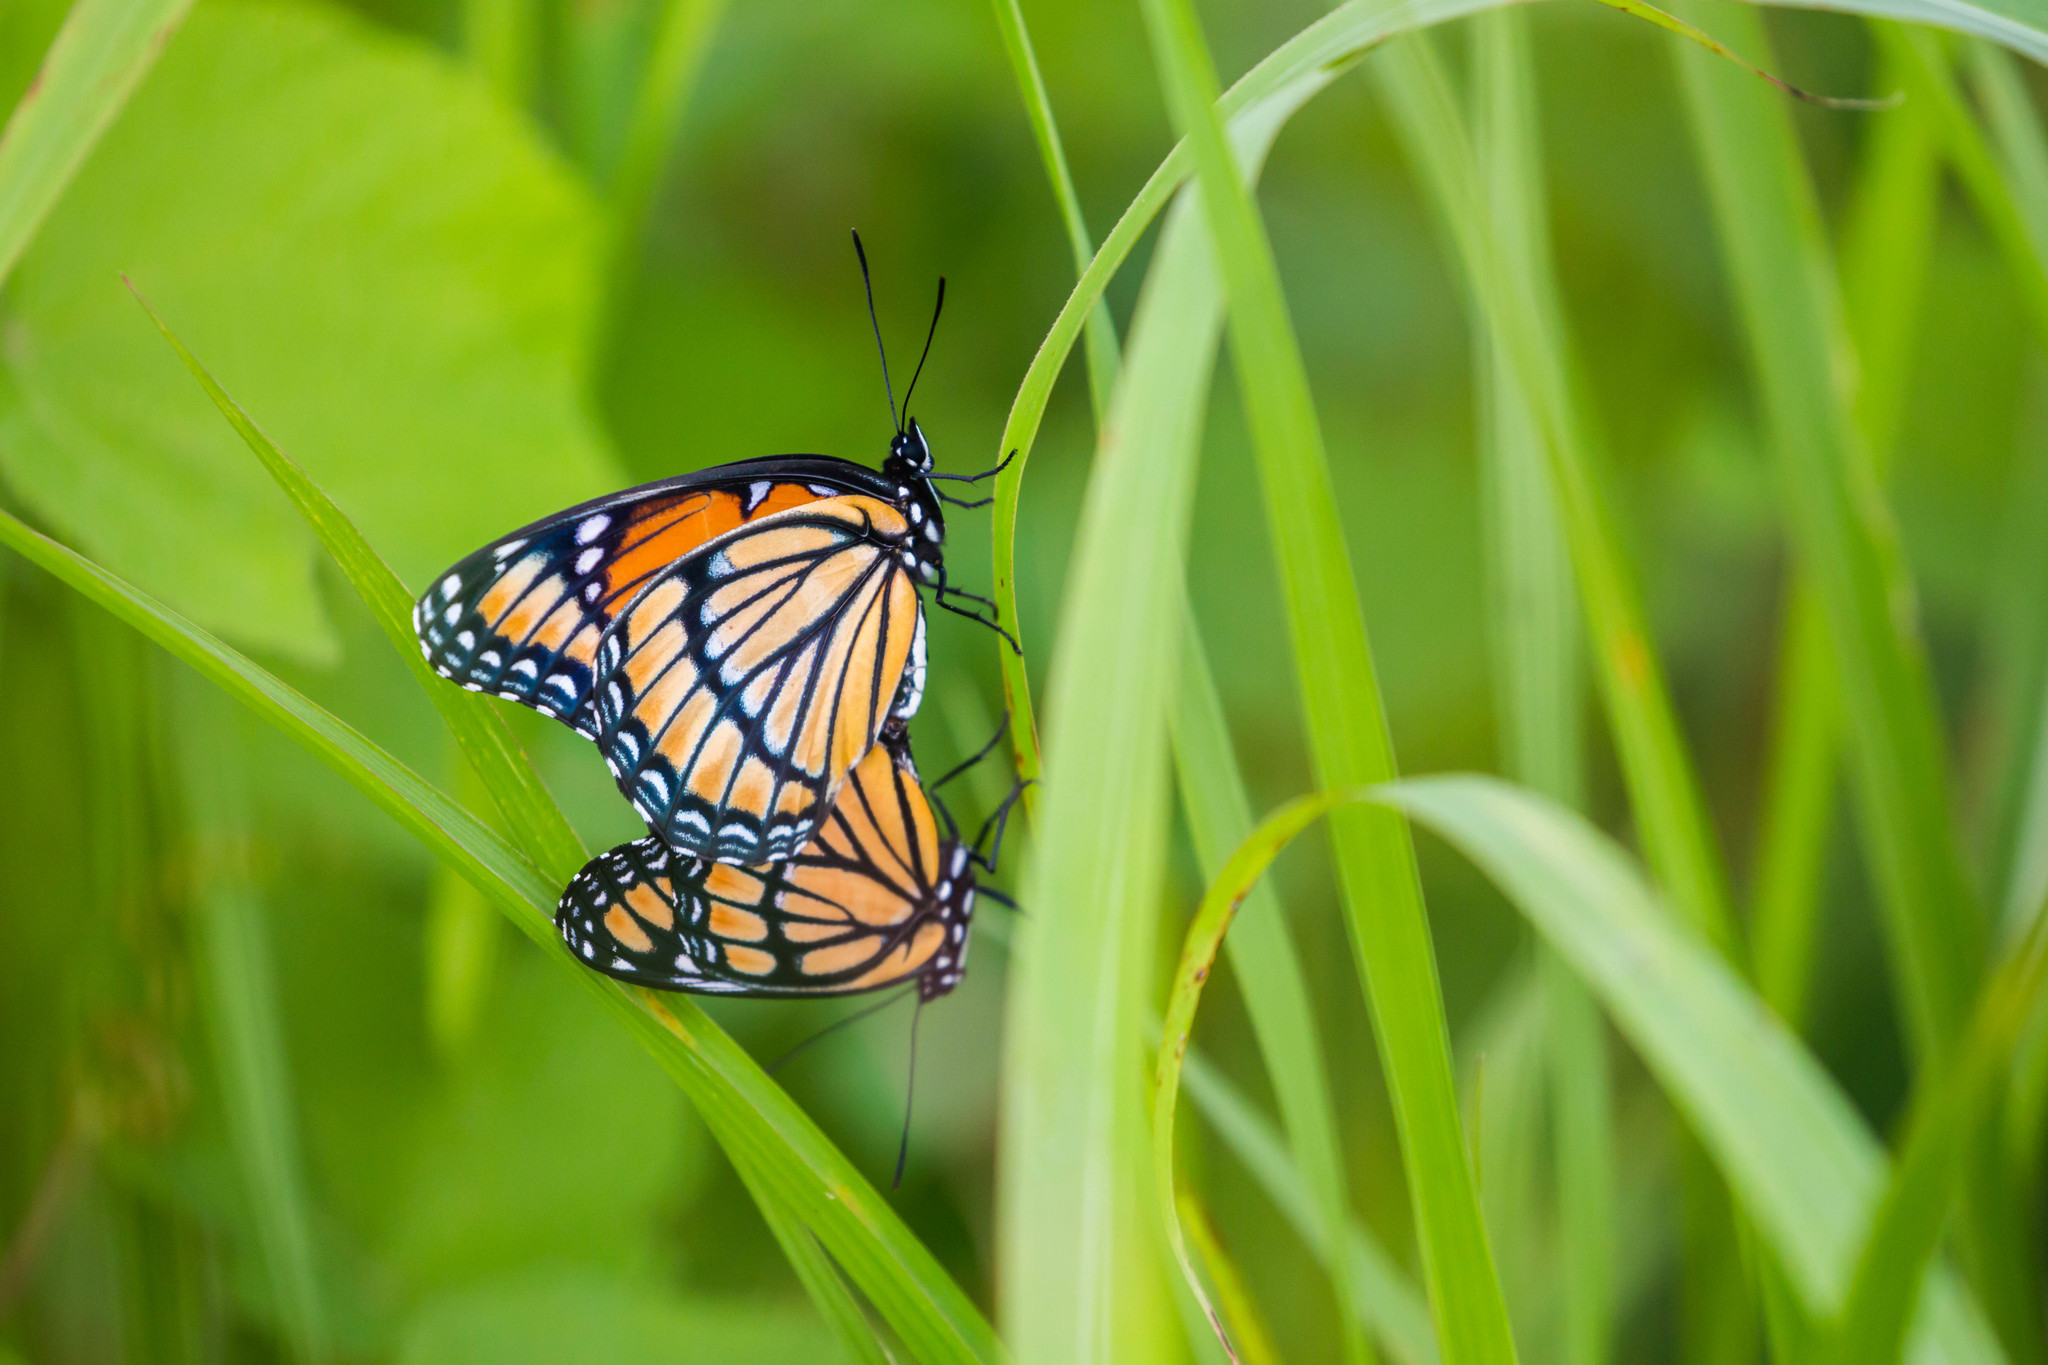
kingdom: Animalia
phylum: Arthropoda
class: Insecta
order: Lepidoptera
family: Nymphalidae
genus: Limenitis
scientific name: Limenitis archippus
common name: Viceroy
